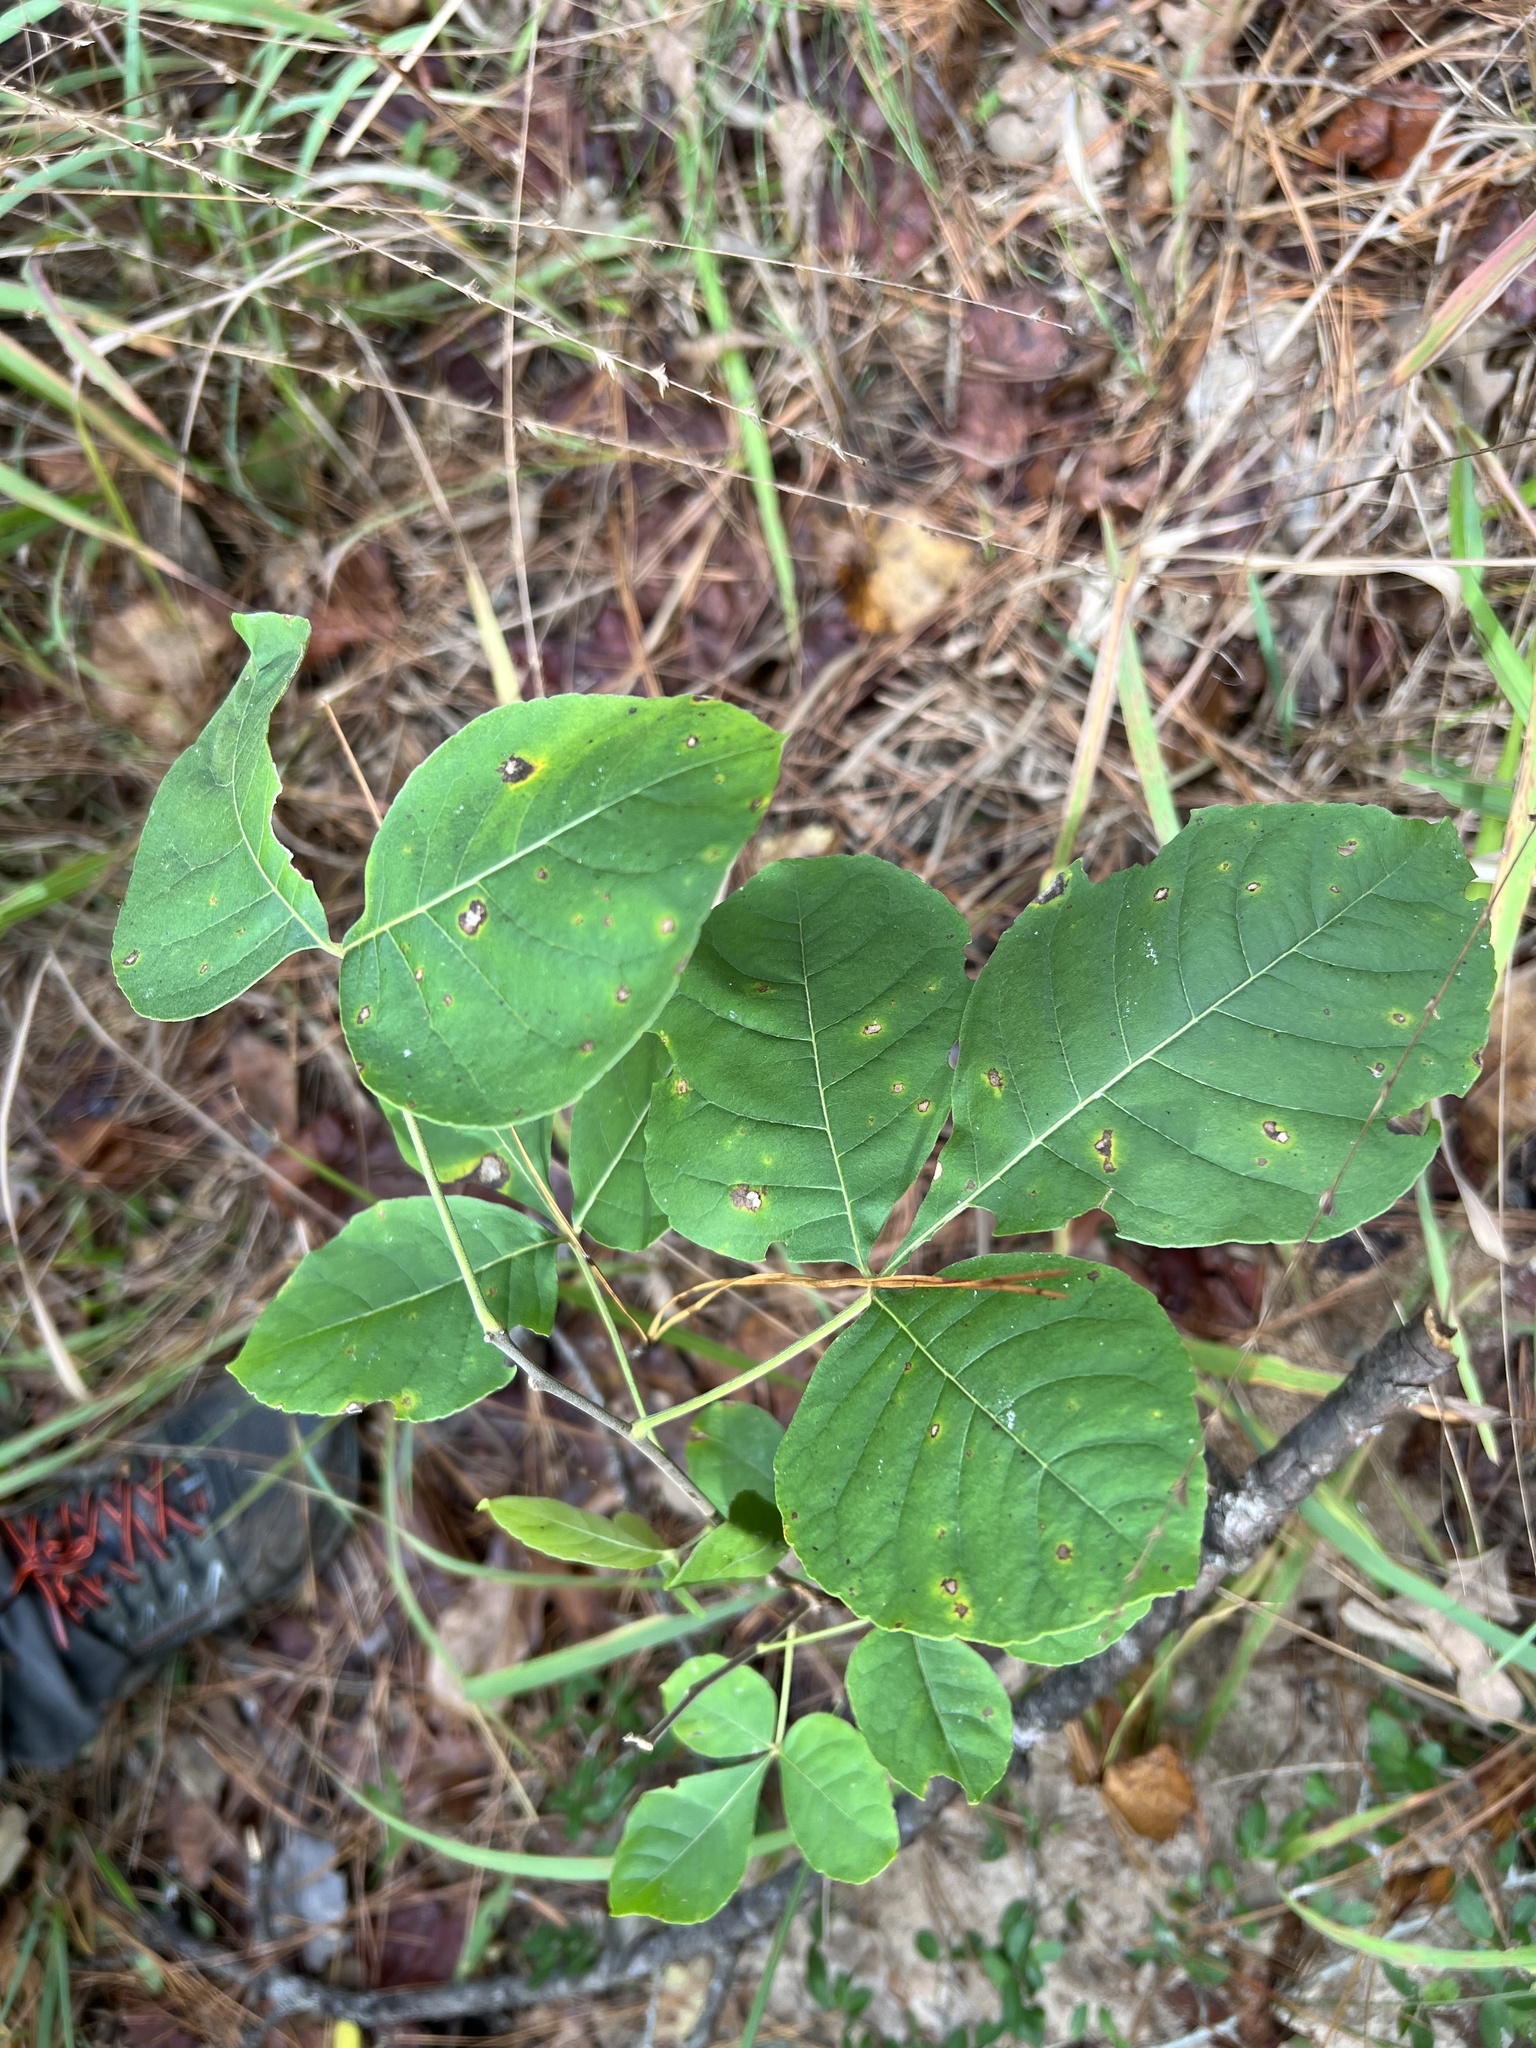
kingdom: Plantae
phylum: Tracheophyta
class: Magnoliopsida
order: Sapindales
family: Rutaceae
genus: Ptelea
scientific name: Ptelea trifoliata
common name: Common hop-tree
